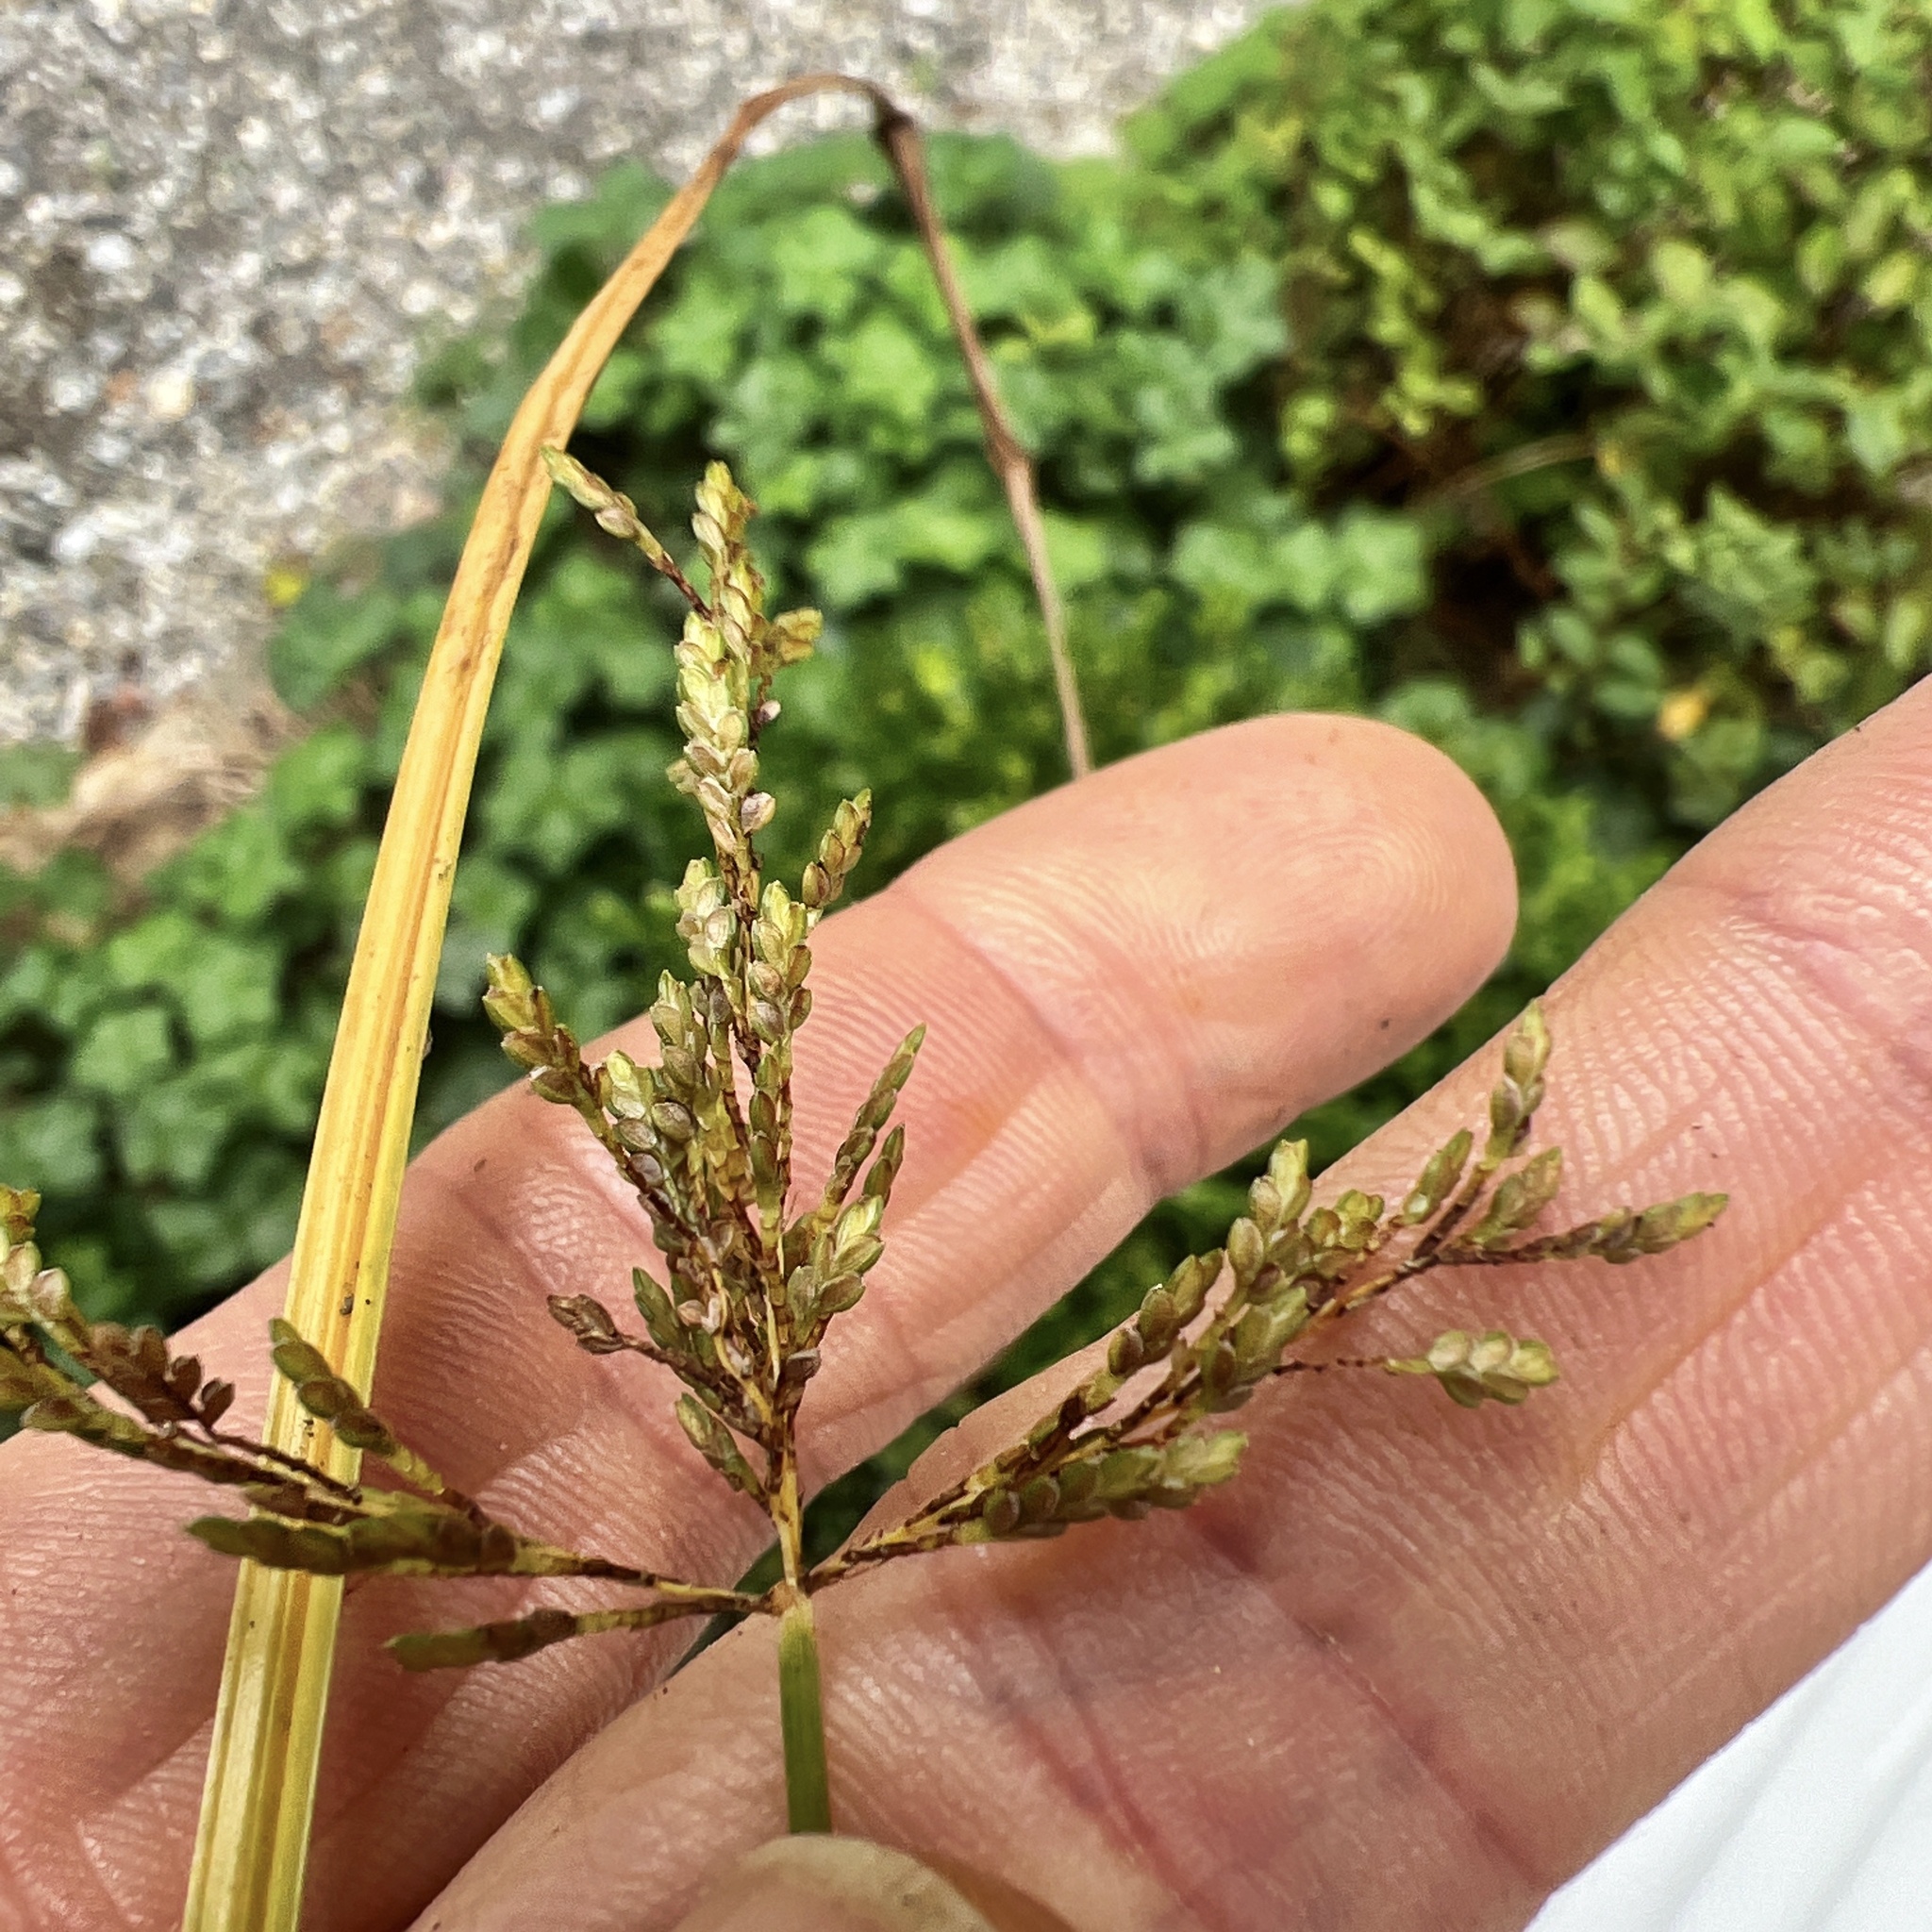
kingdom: Plantae
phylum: Tracheophyta
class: Liliopsida
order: Poales
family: Cyperaceae
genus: Cyperus
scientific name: Cyperus iria
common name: Ricefield flatsedge
